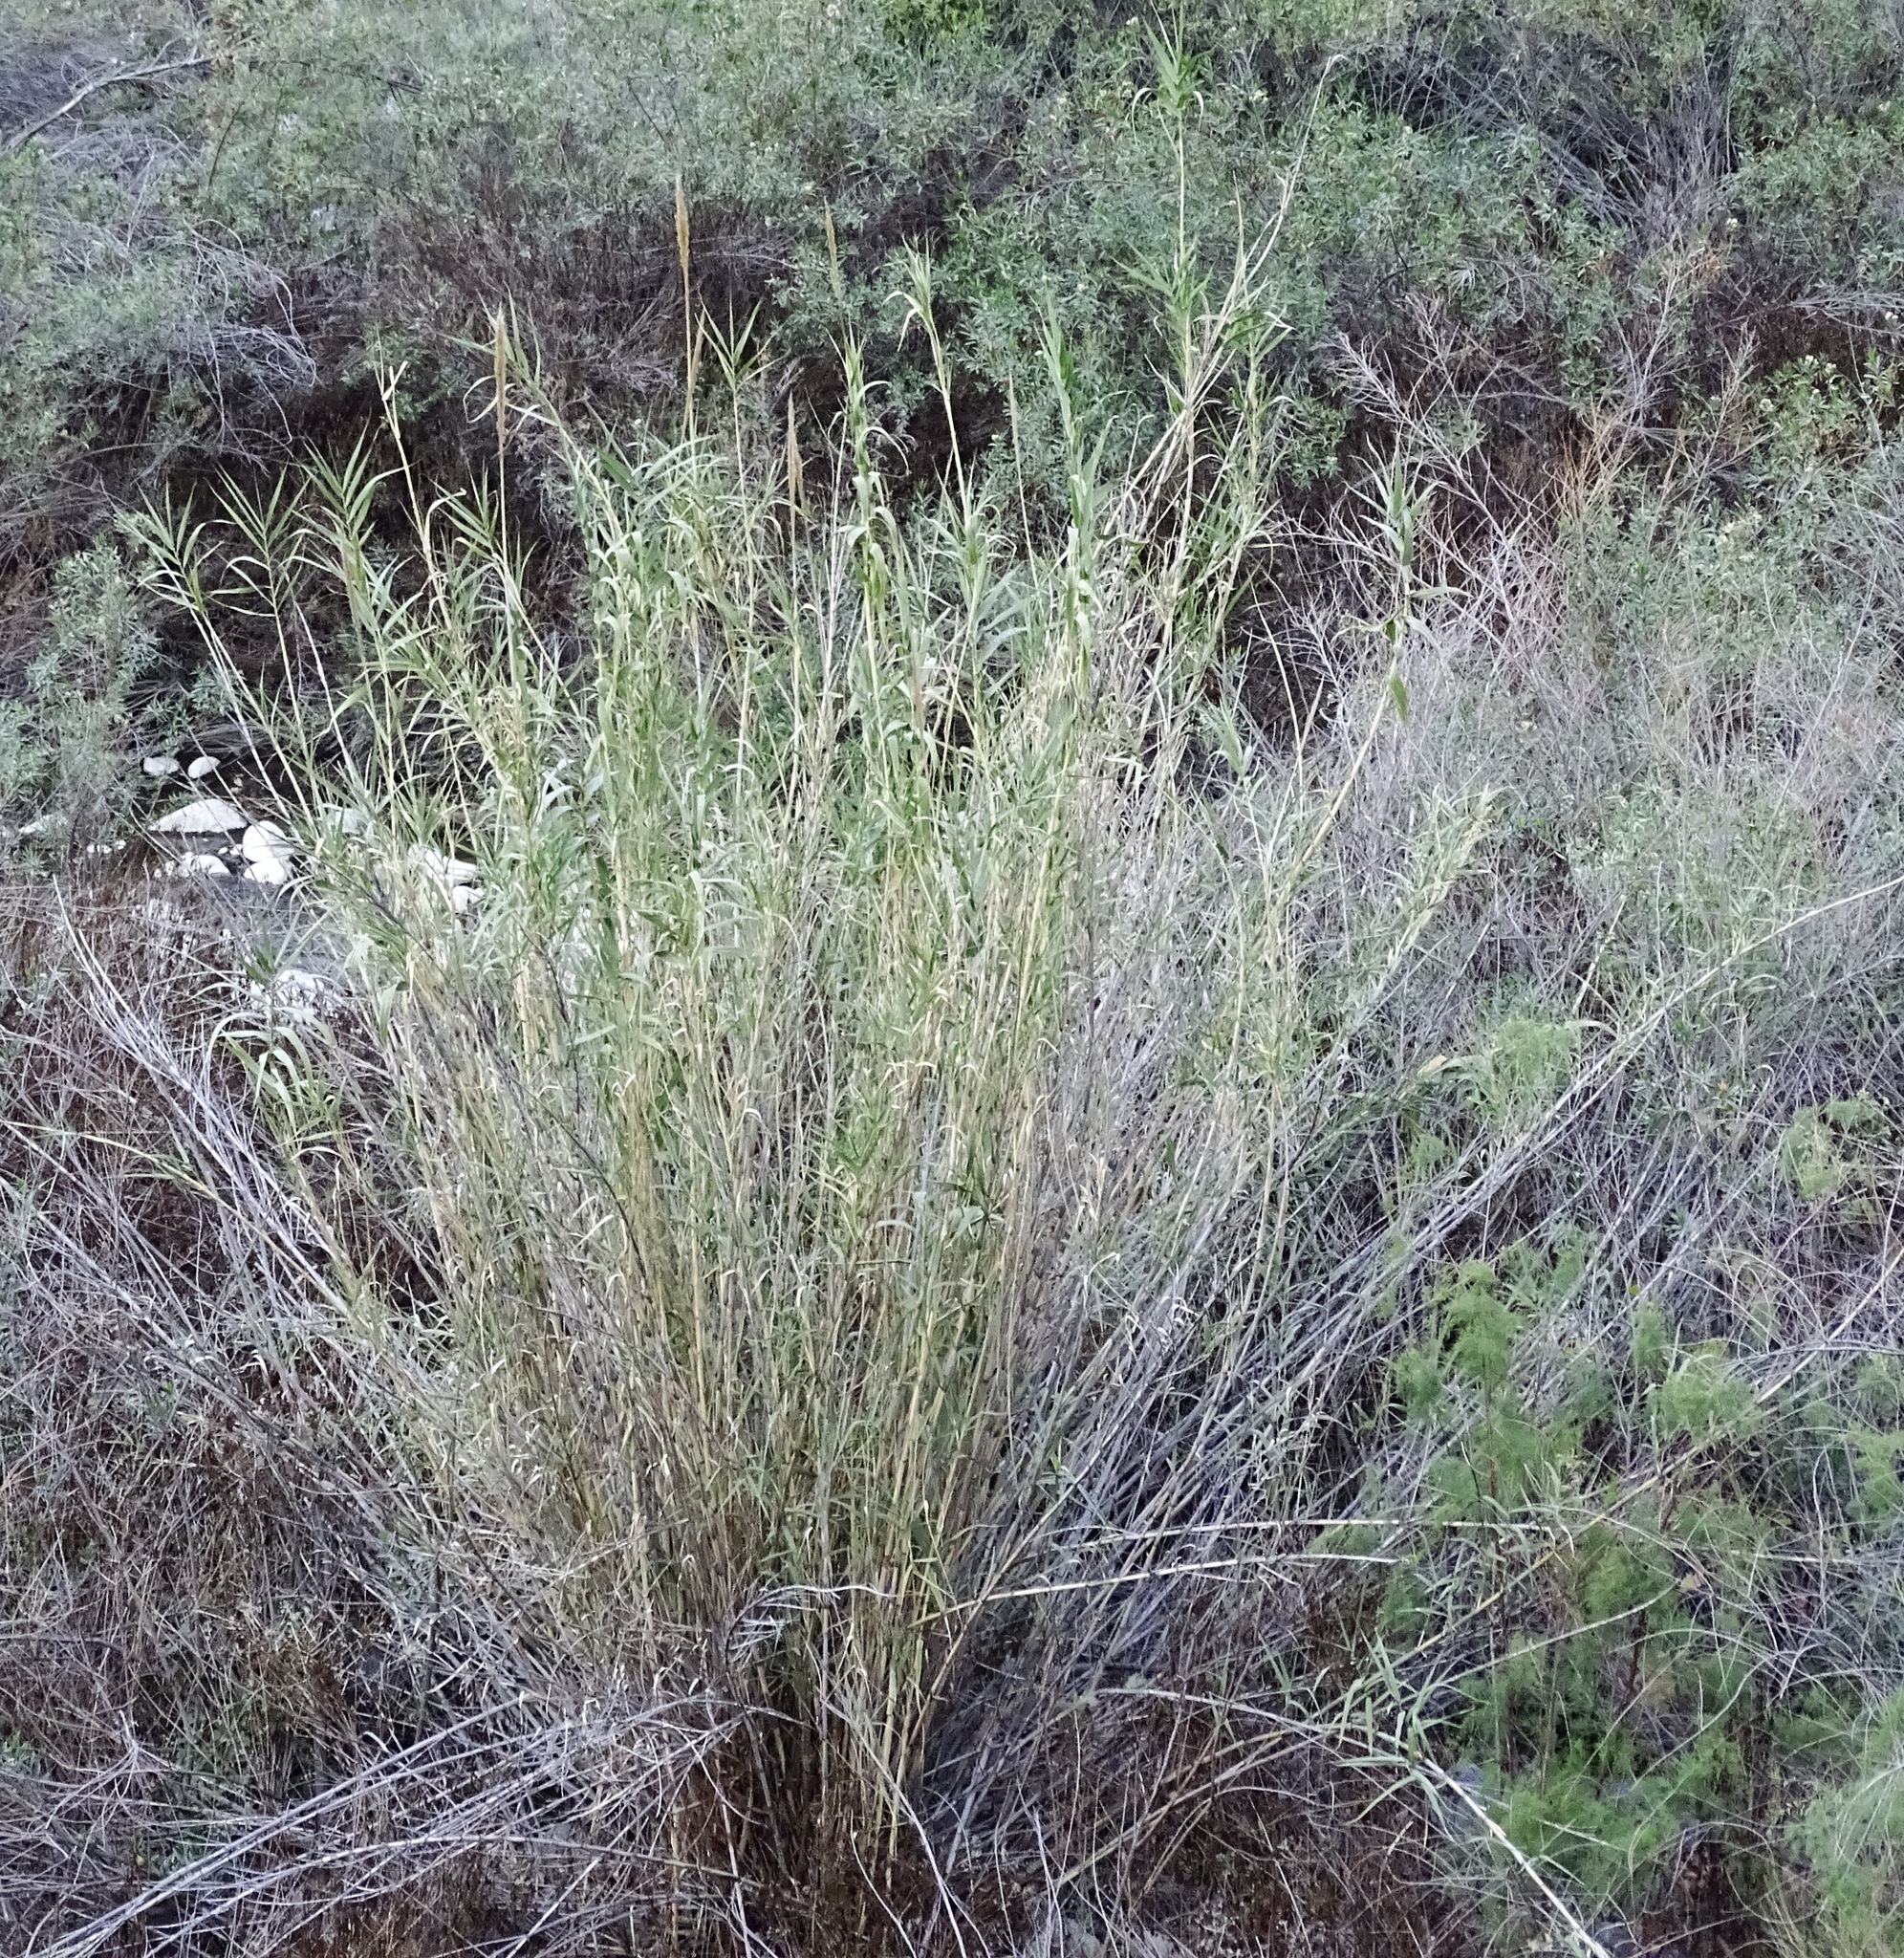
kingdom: Plantae
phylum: Tracheophyta
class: Liliopsida
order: Poales
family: Poaceae
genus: Arundo
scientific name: Arundo donax
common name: Giant reed
